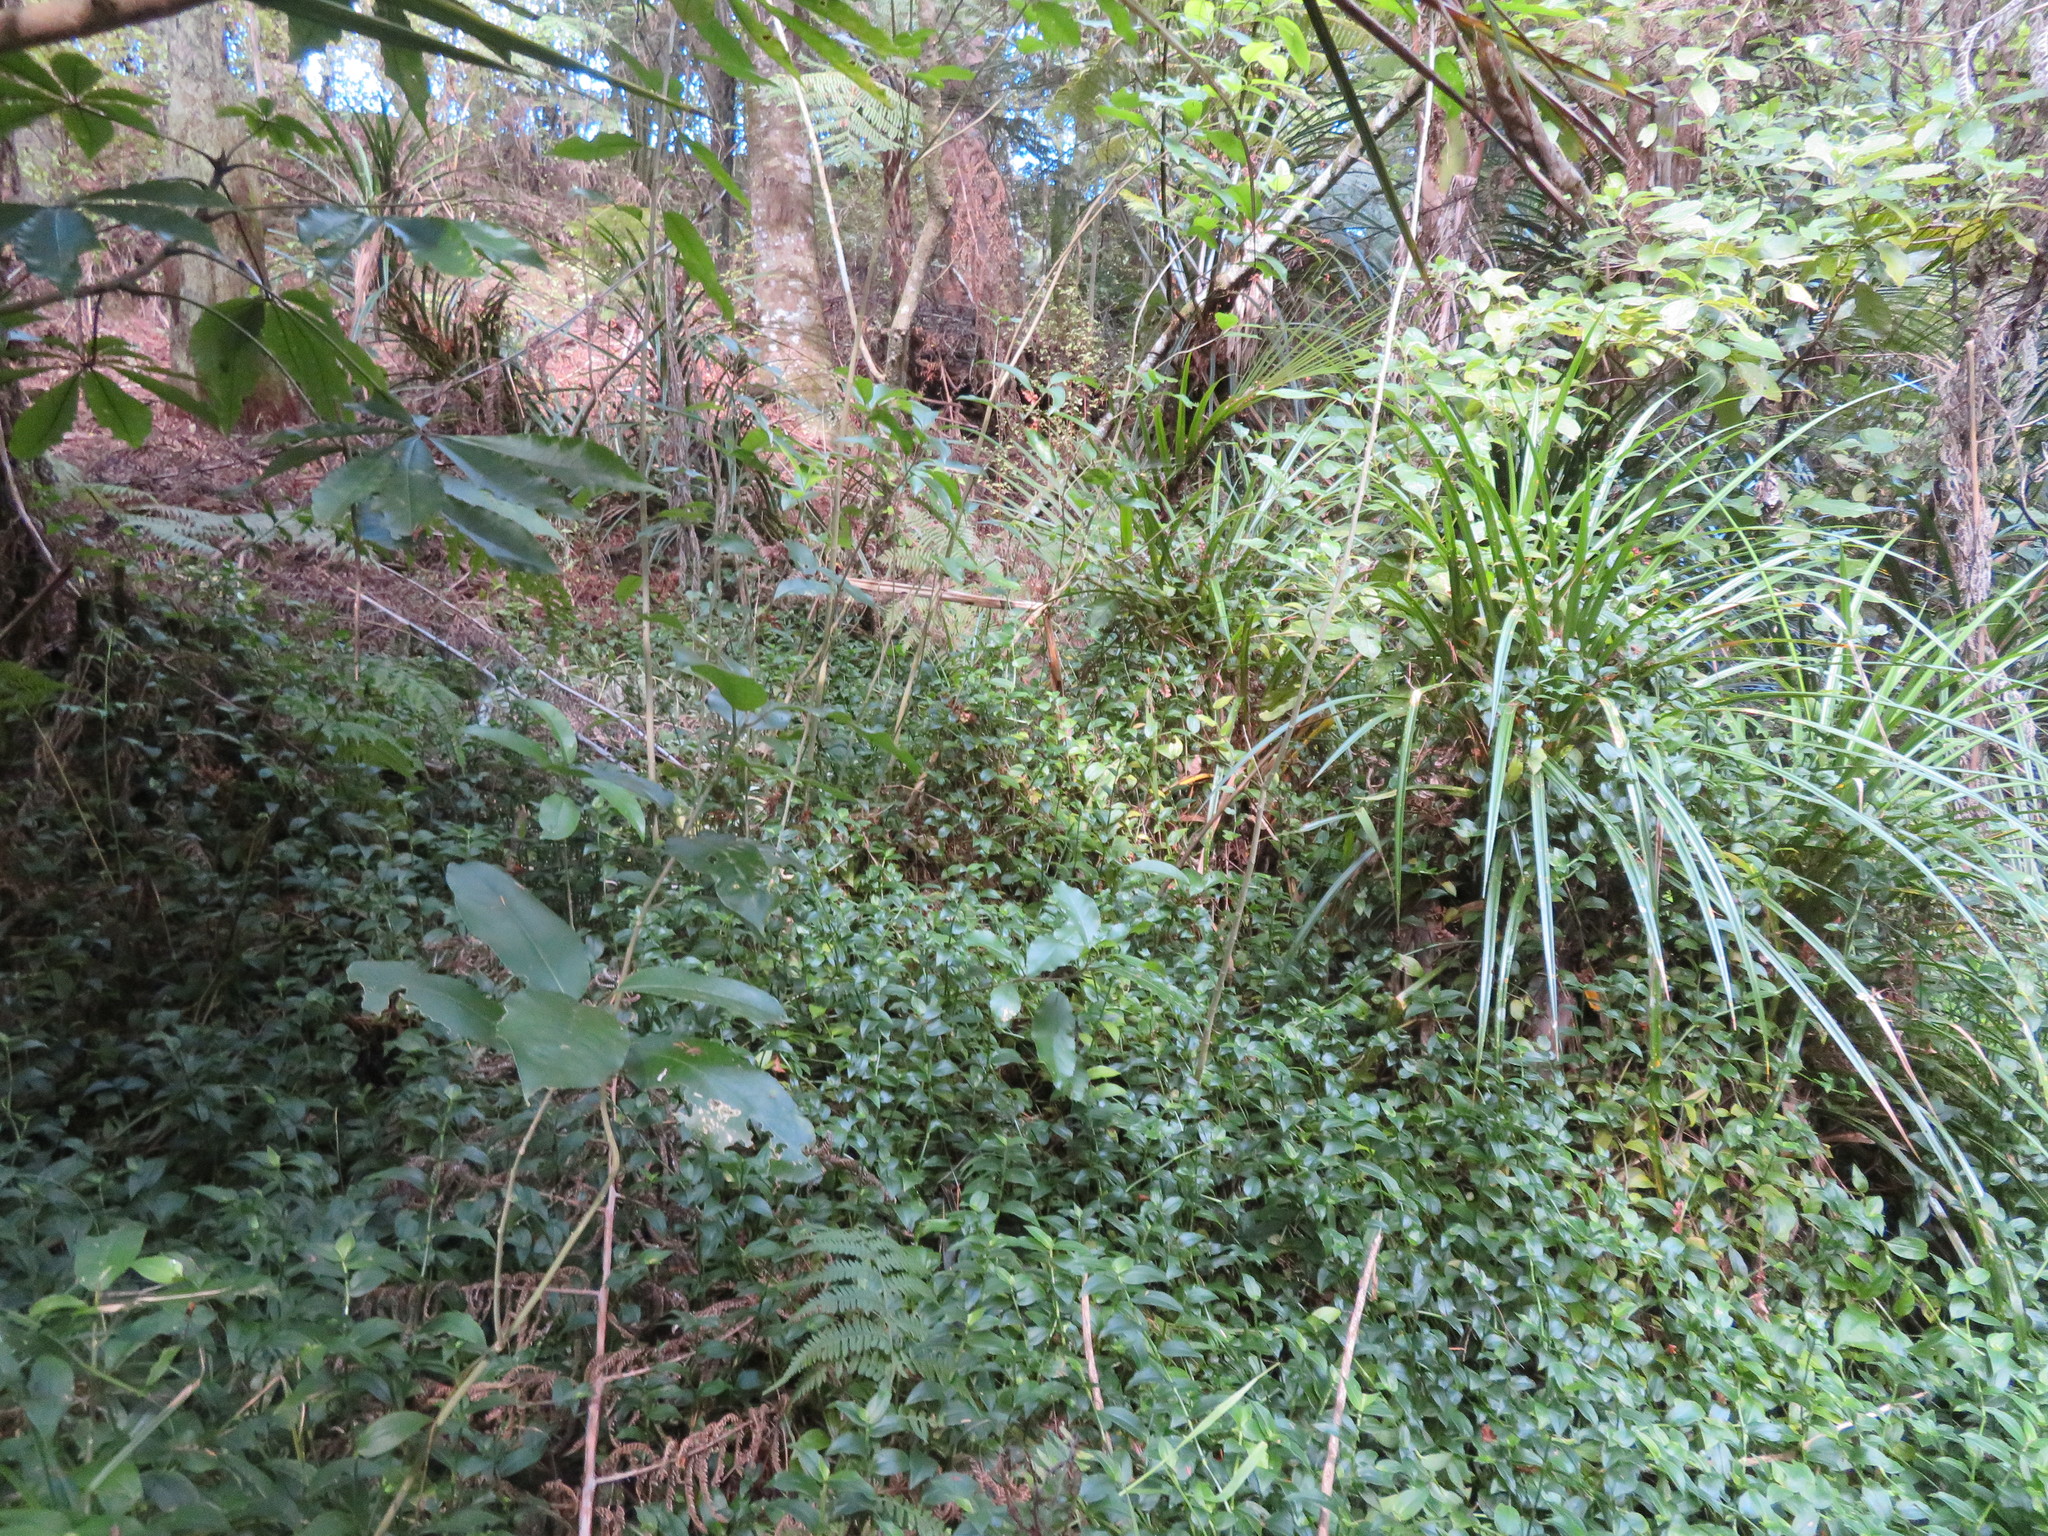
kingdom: Plantae
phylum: Tracheophyta
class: Magnoliopsida
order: Malpighiales
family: Violaceae
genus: Melicytus
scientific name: Melicytus ramiflorus
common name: Mahoe
